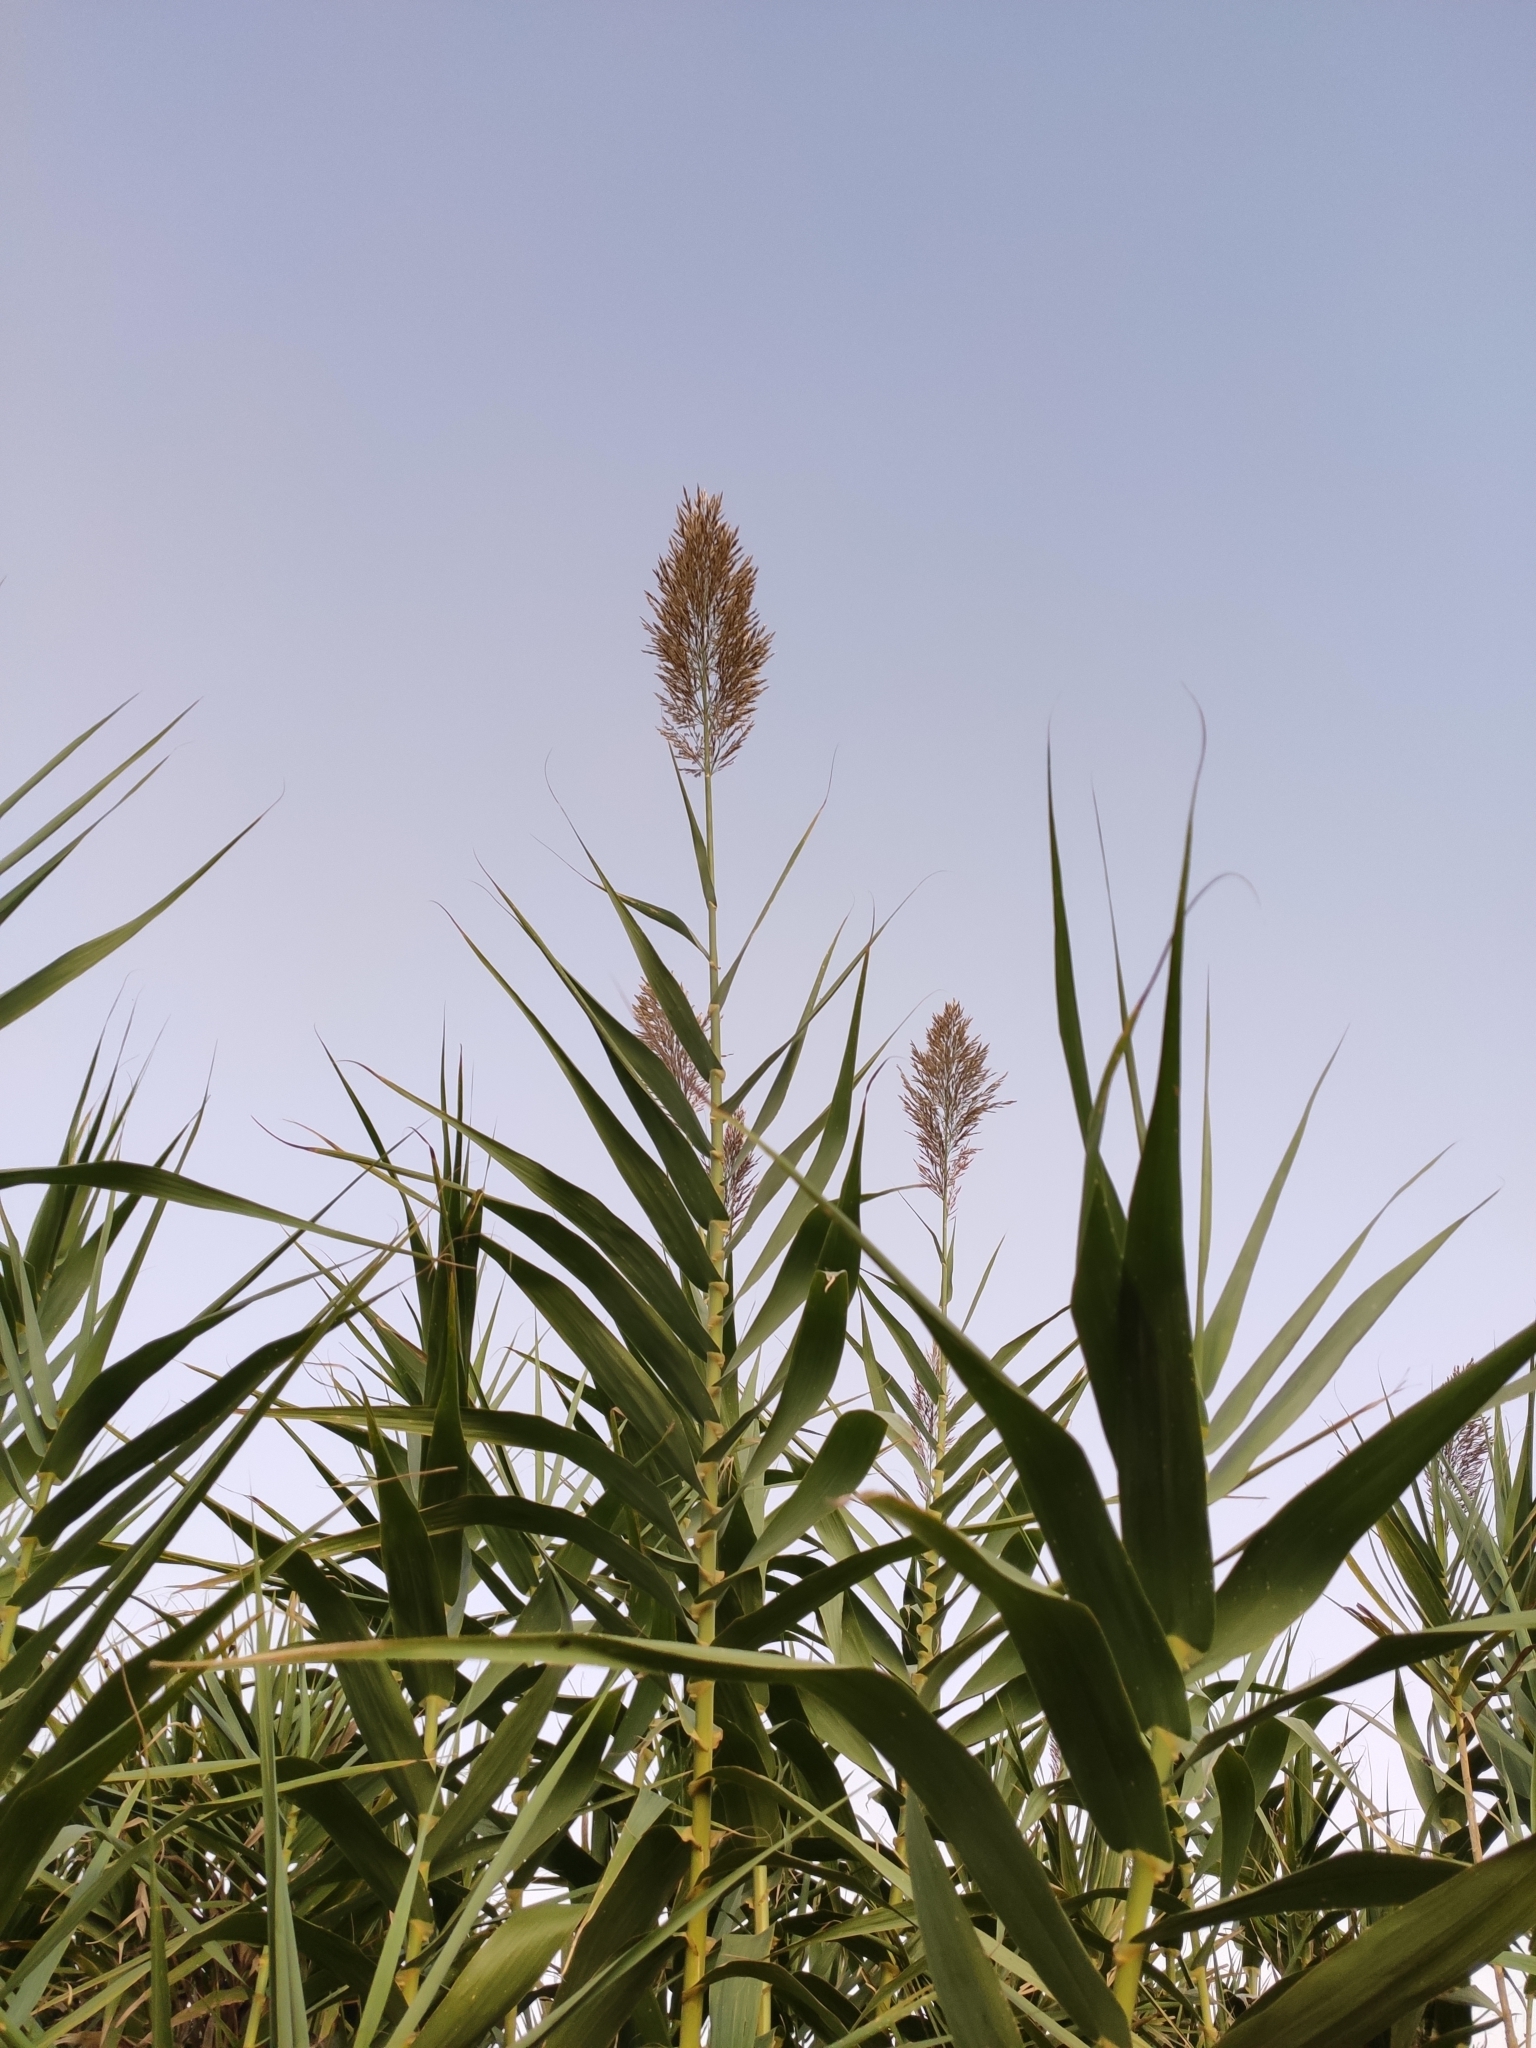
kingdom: Plantae
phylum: Tracheophyta
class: Liliopsida
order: Poales
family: Poaceae
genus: Arundo
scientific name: Arundo donax
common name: Giant reed
